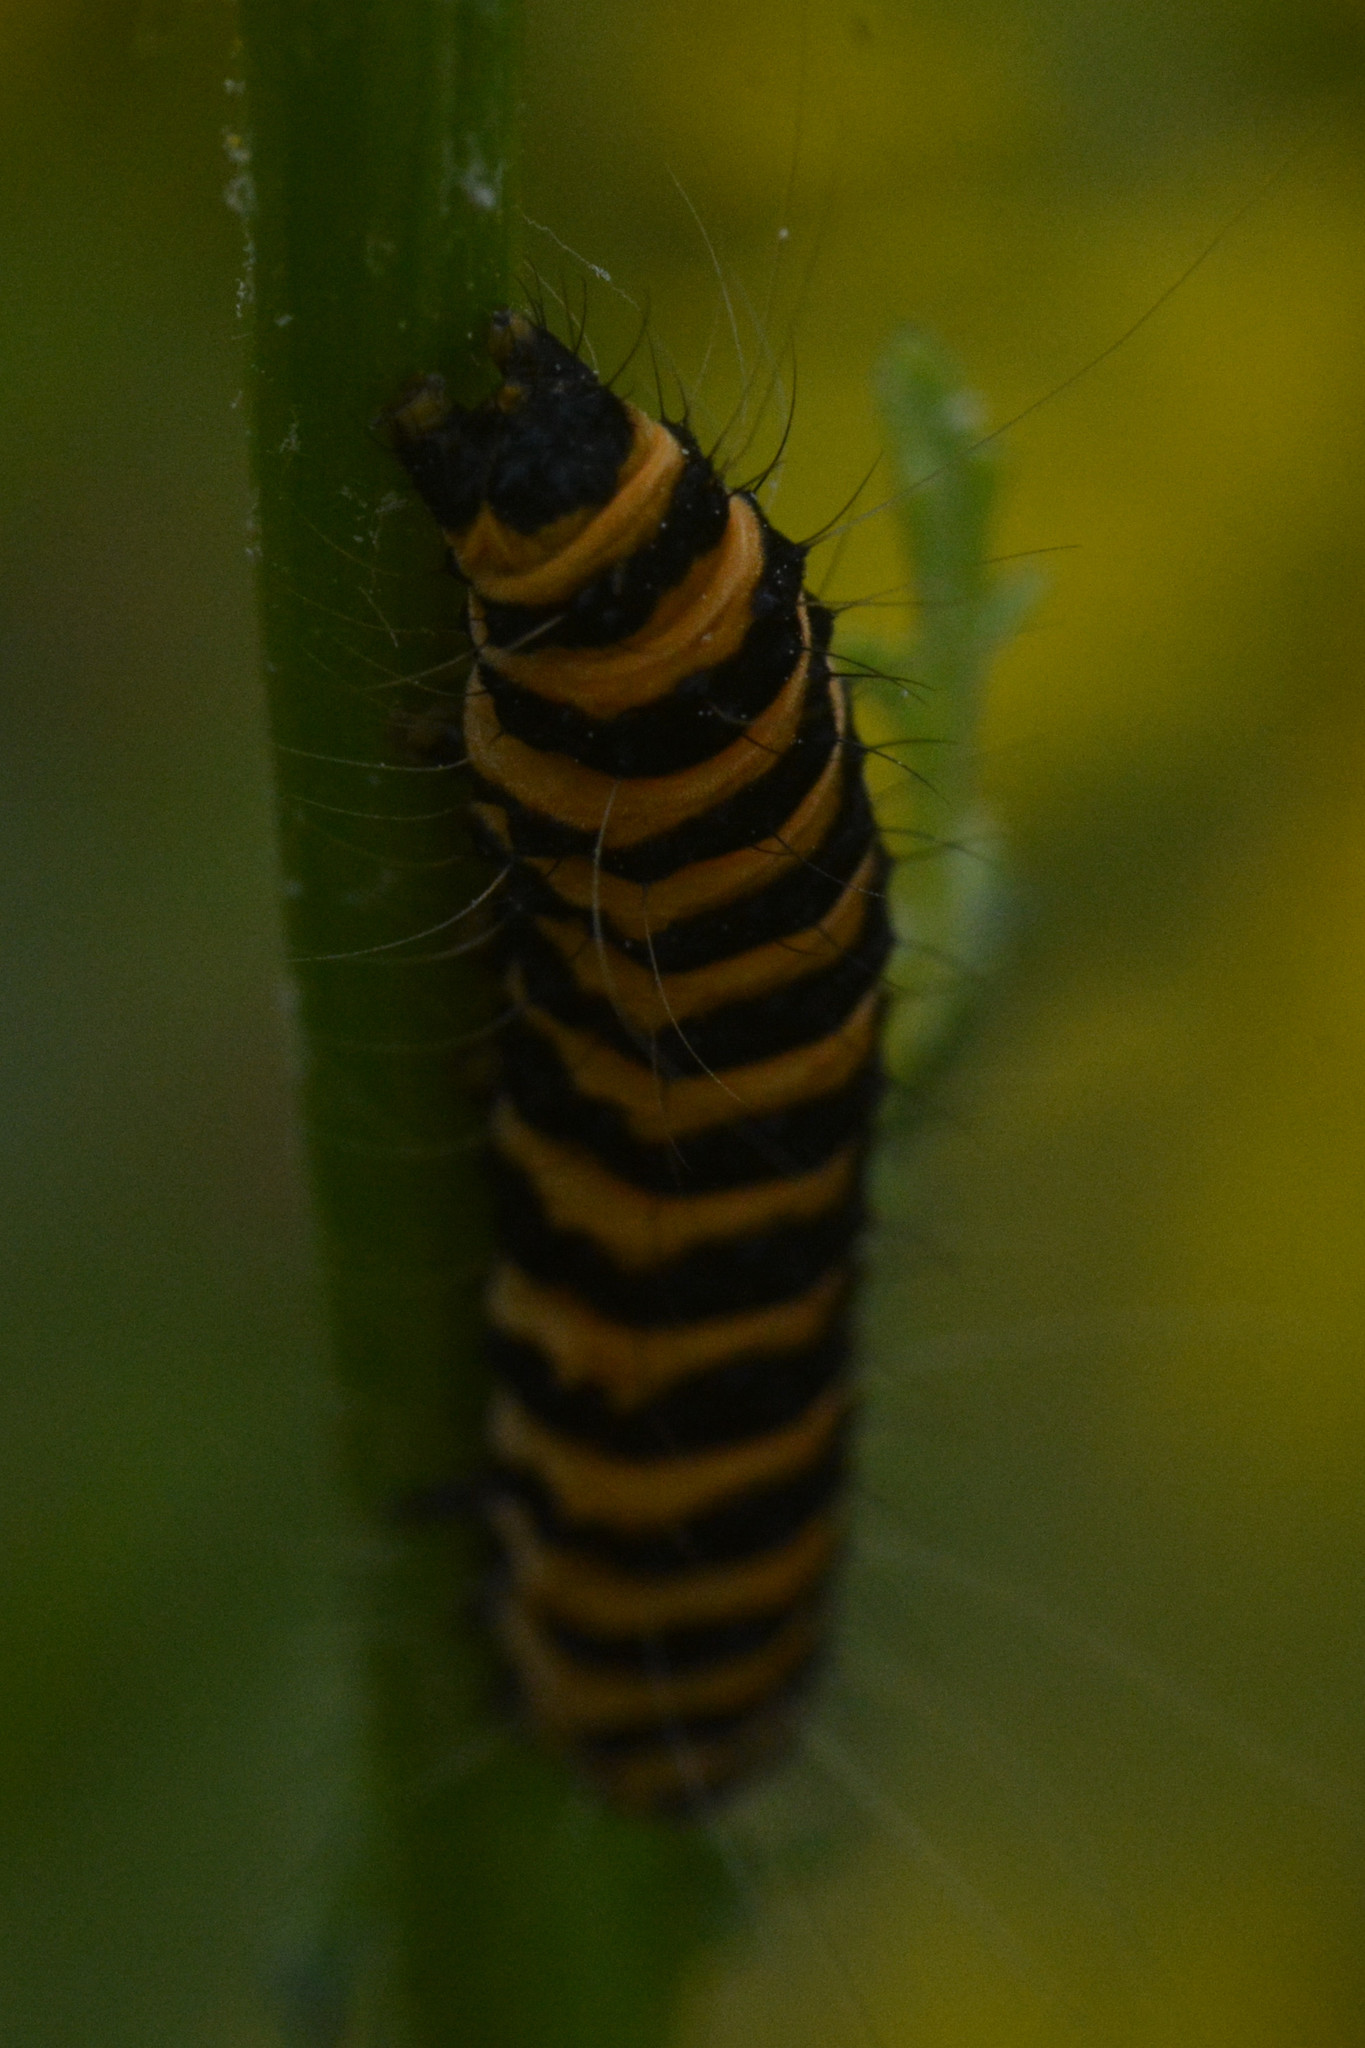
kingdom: Animalia
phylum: Arthropoda
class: Insecta
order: Lepidoptera
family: Erebidae
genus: Tyria
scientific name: Tyria jacobaeae
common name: Cinnabar
